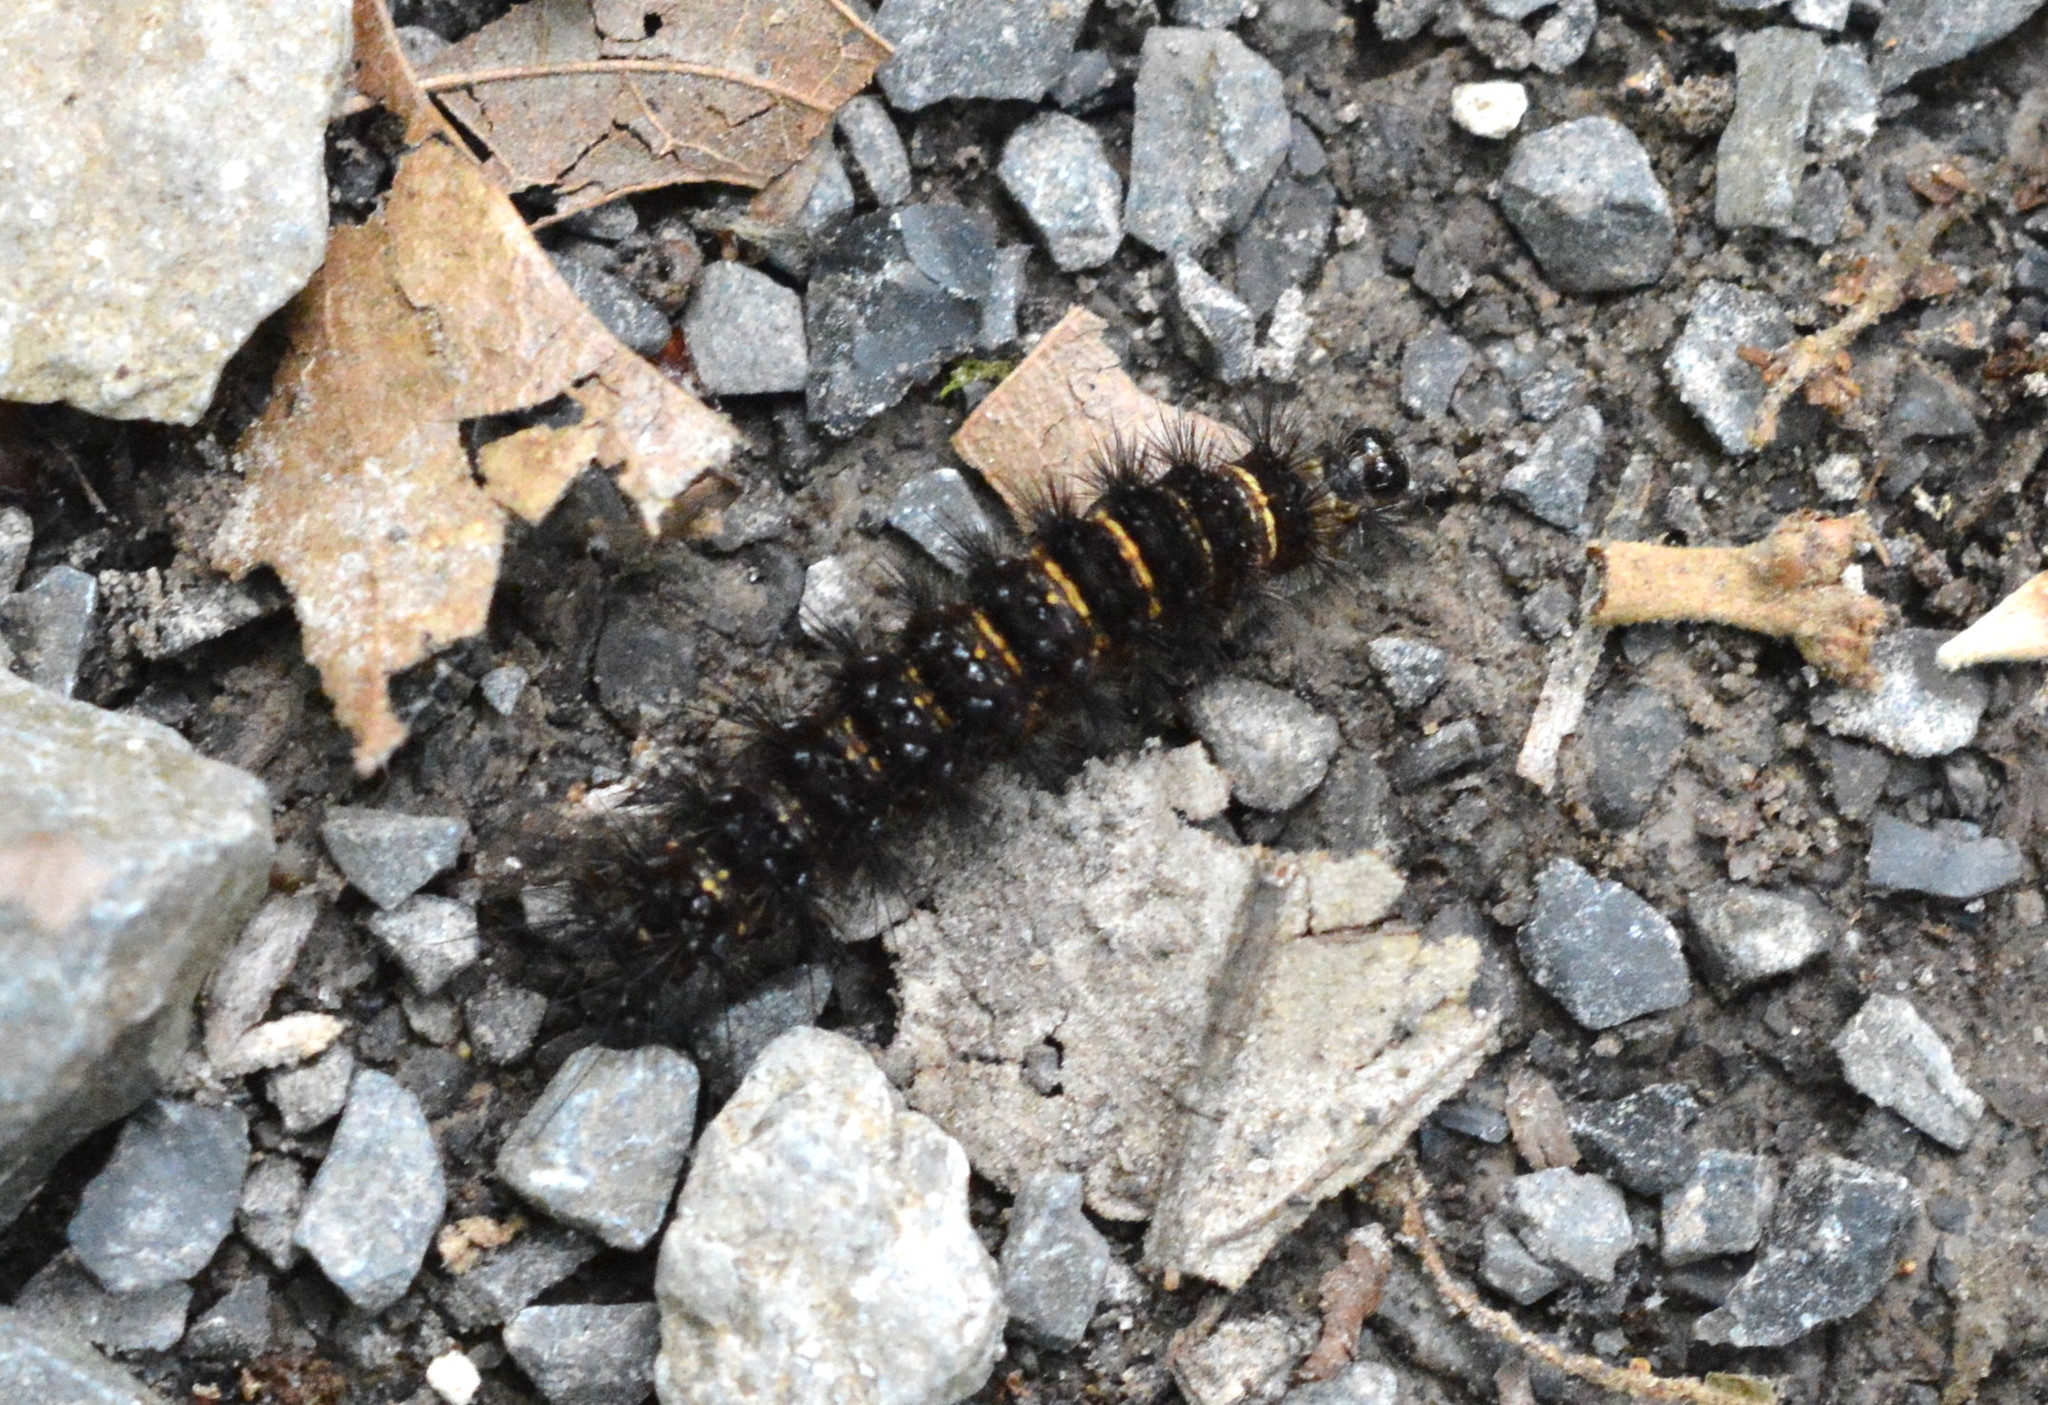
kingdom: Animalia
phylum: Arthropoda
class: Insecta
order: Lepidoptera
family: Erebidae
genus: Spilosoma
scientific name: Spilosoma congrua
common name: Agreeable tiger moth
